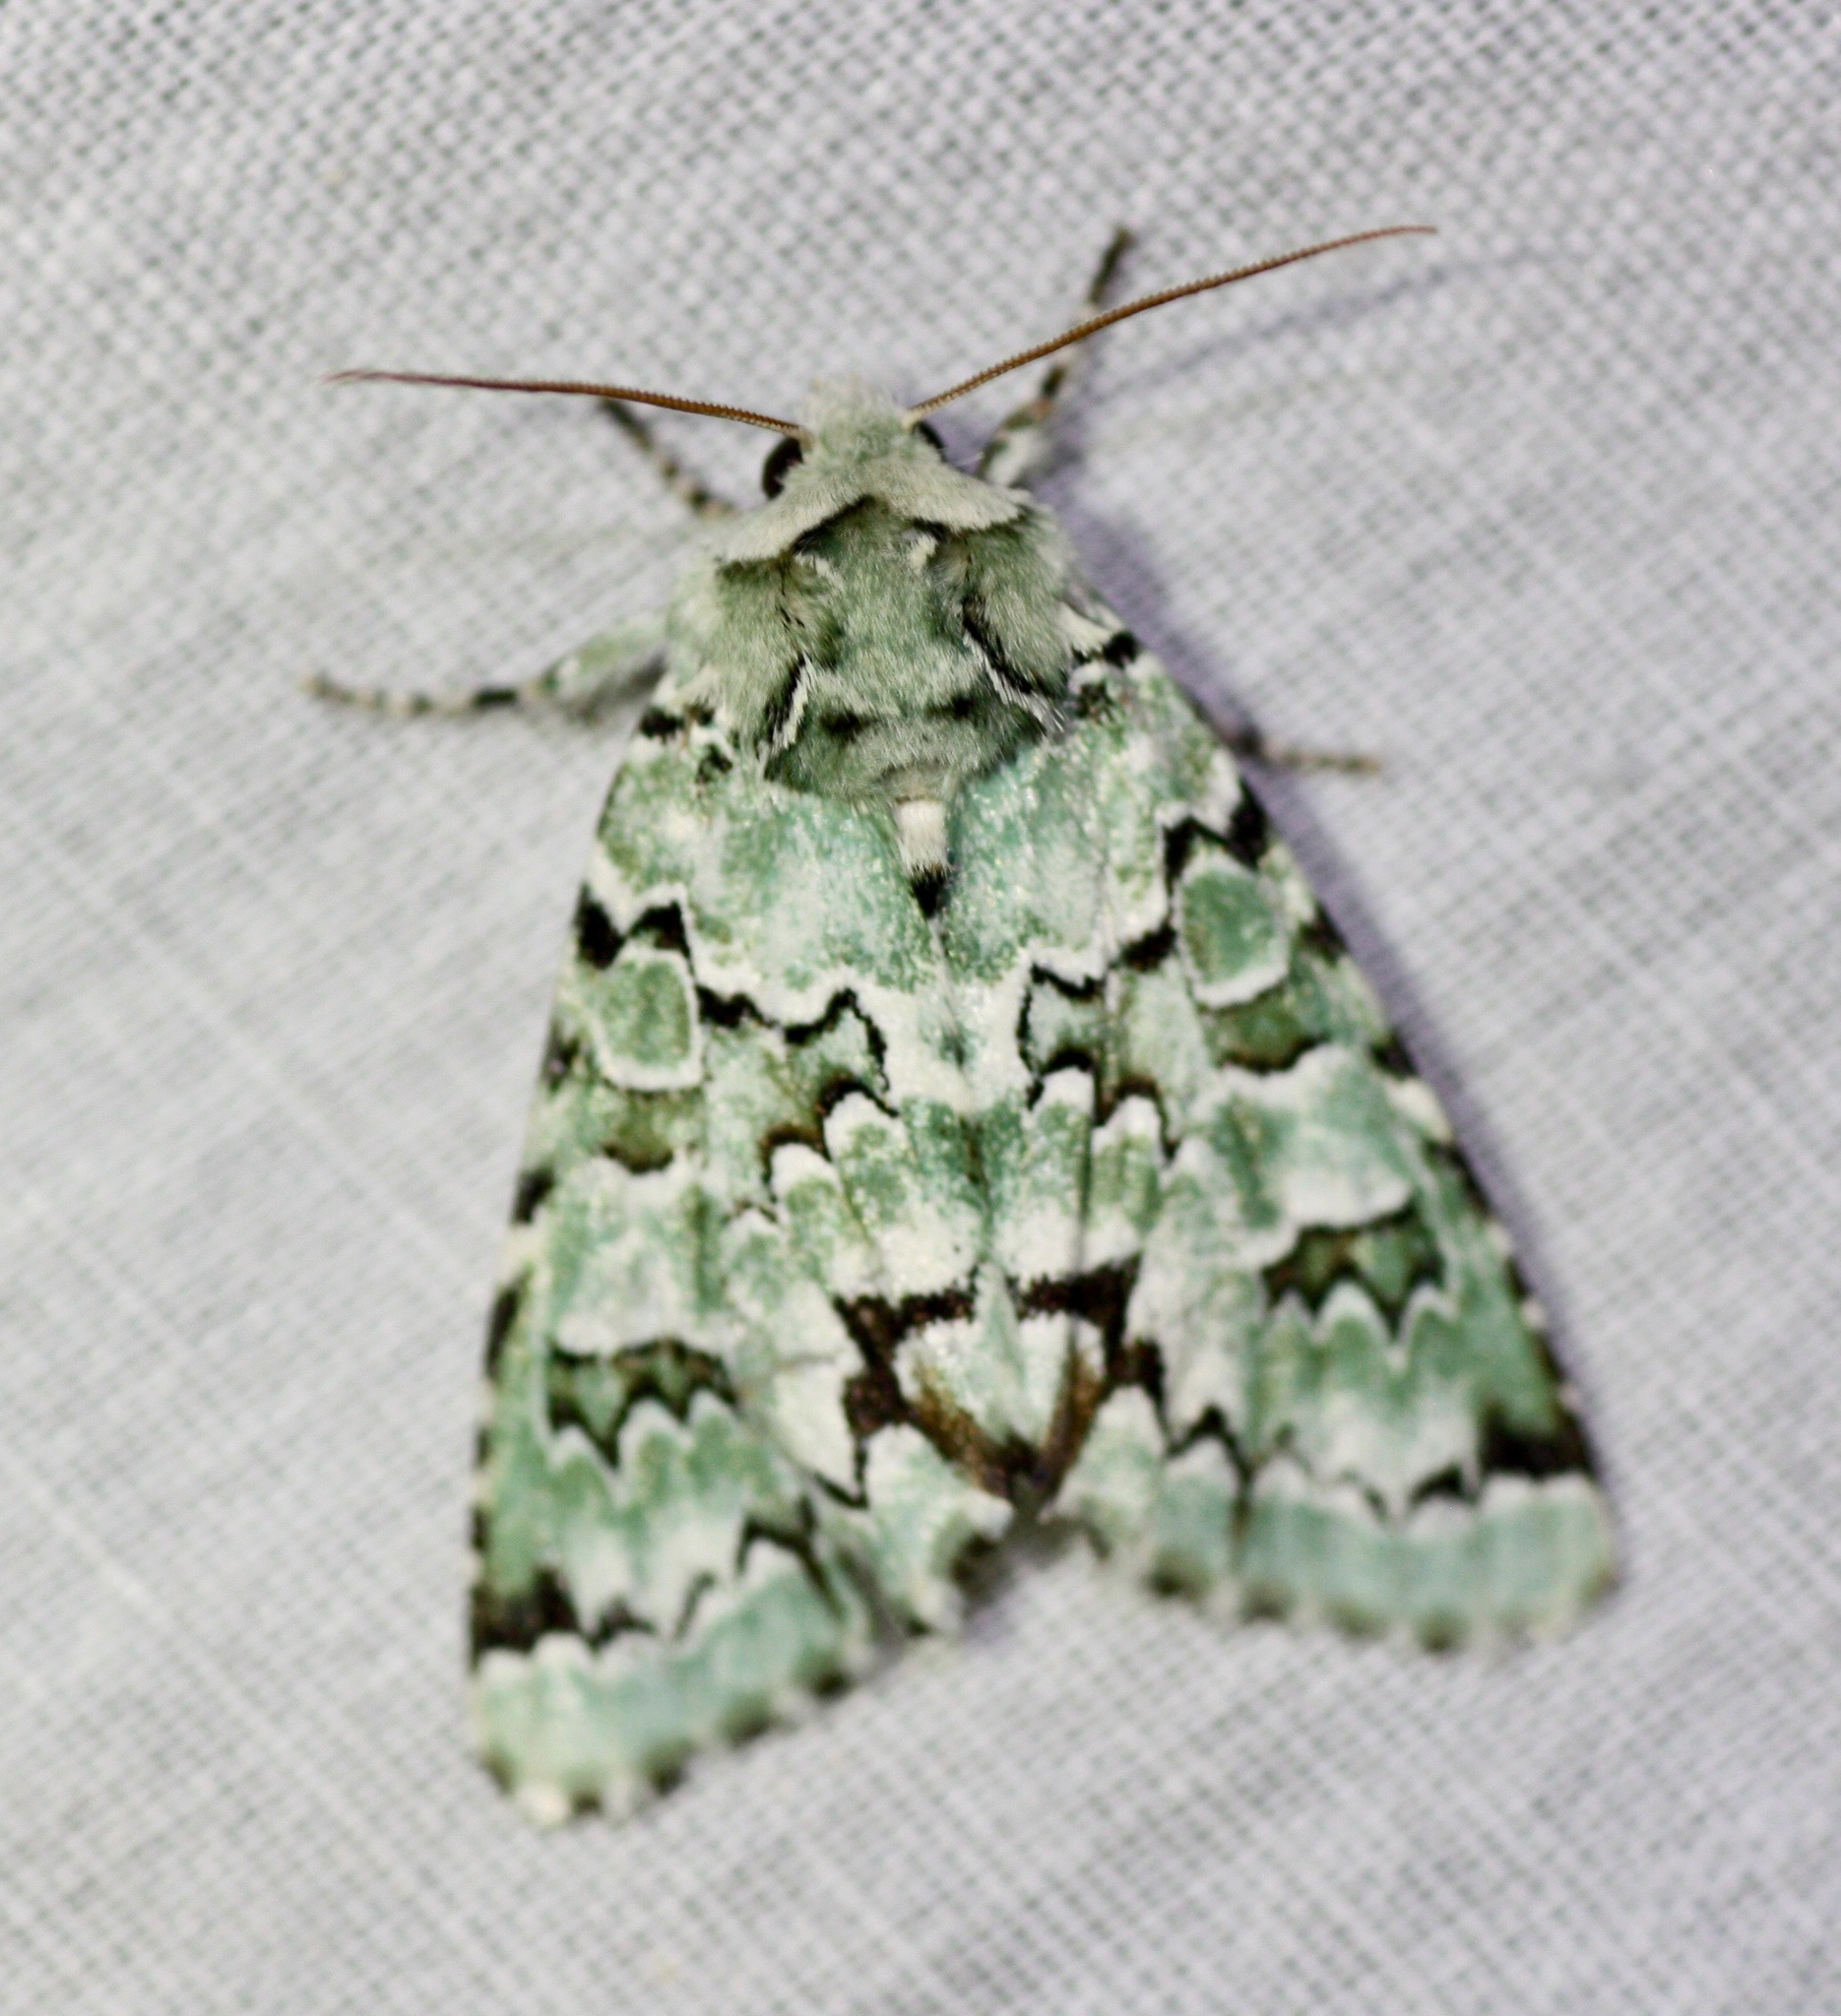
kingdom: Animalia
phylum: Arthropoda
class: Insecta
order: Lepidoptera
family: Noctuidae
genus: Miracavira
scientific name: Miracavira brillians
